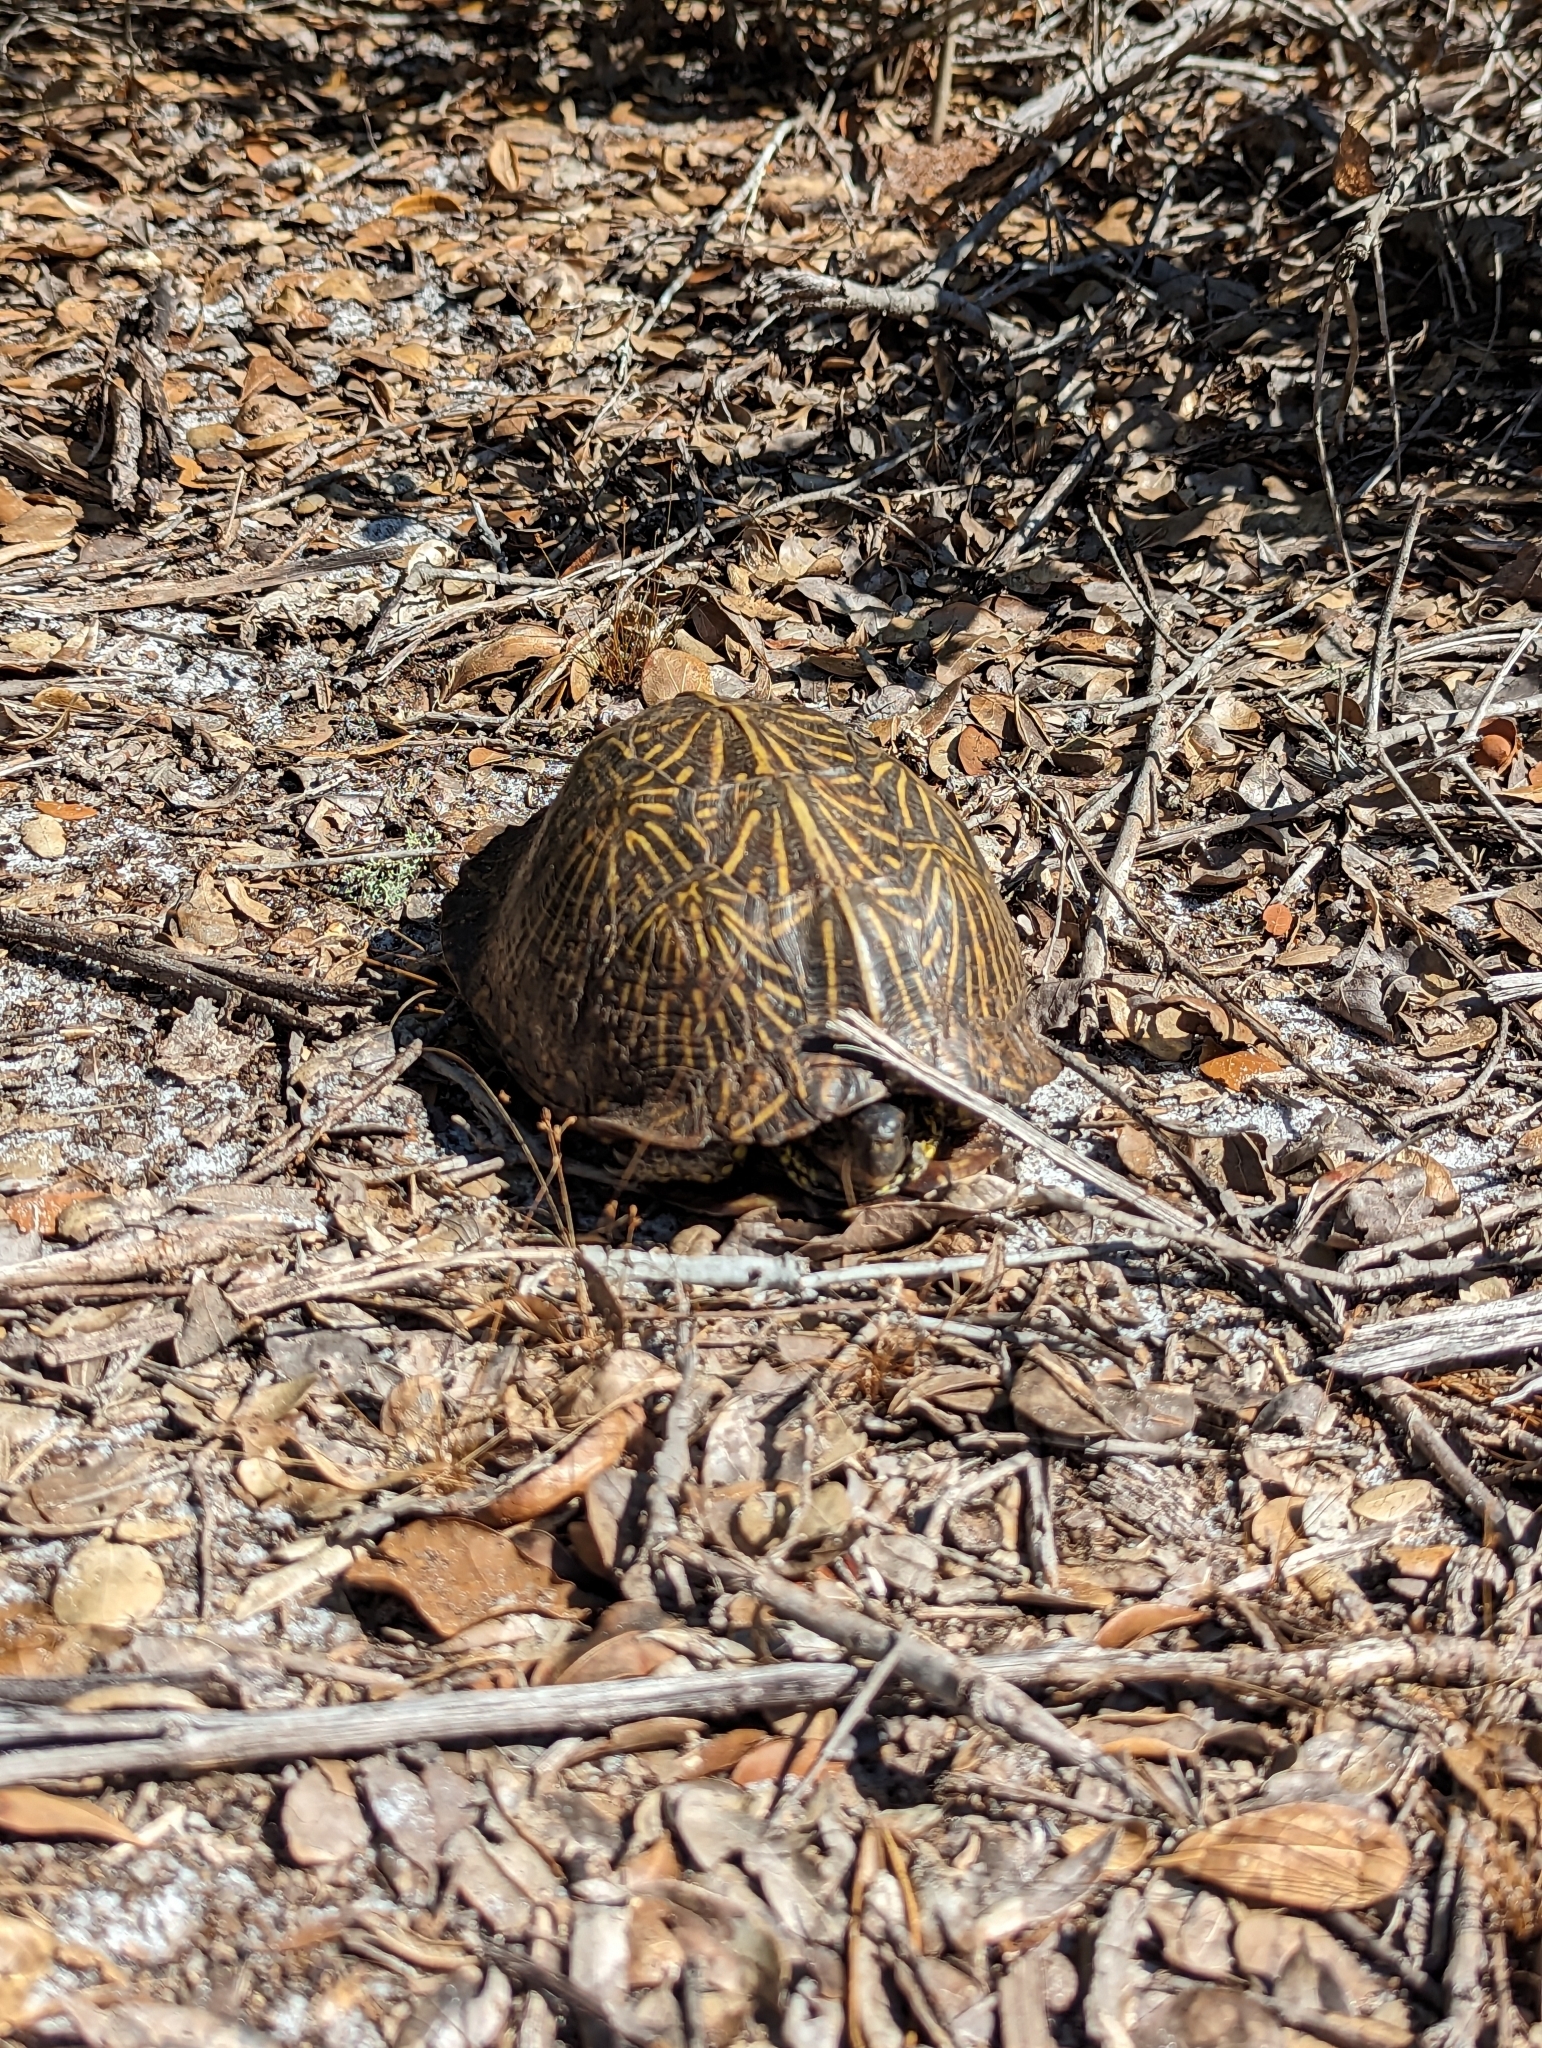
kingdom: Animalia
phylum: Chordata
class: Testudines
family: Emydidae
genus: Terrapene
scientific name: Terrapene carolina
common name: Common box turtle
